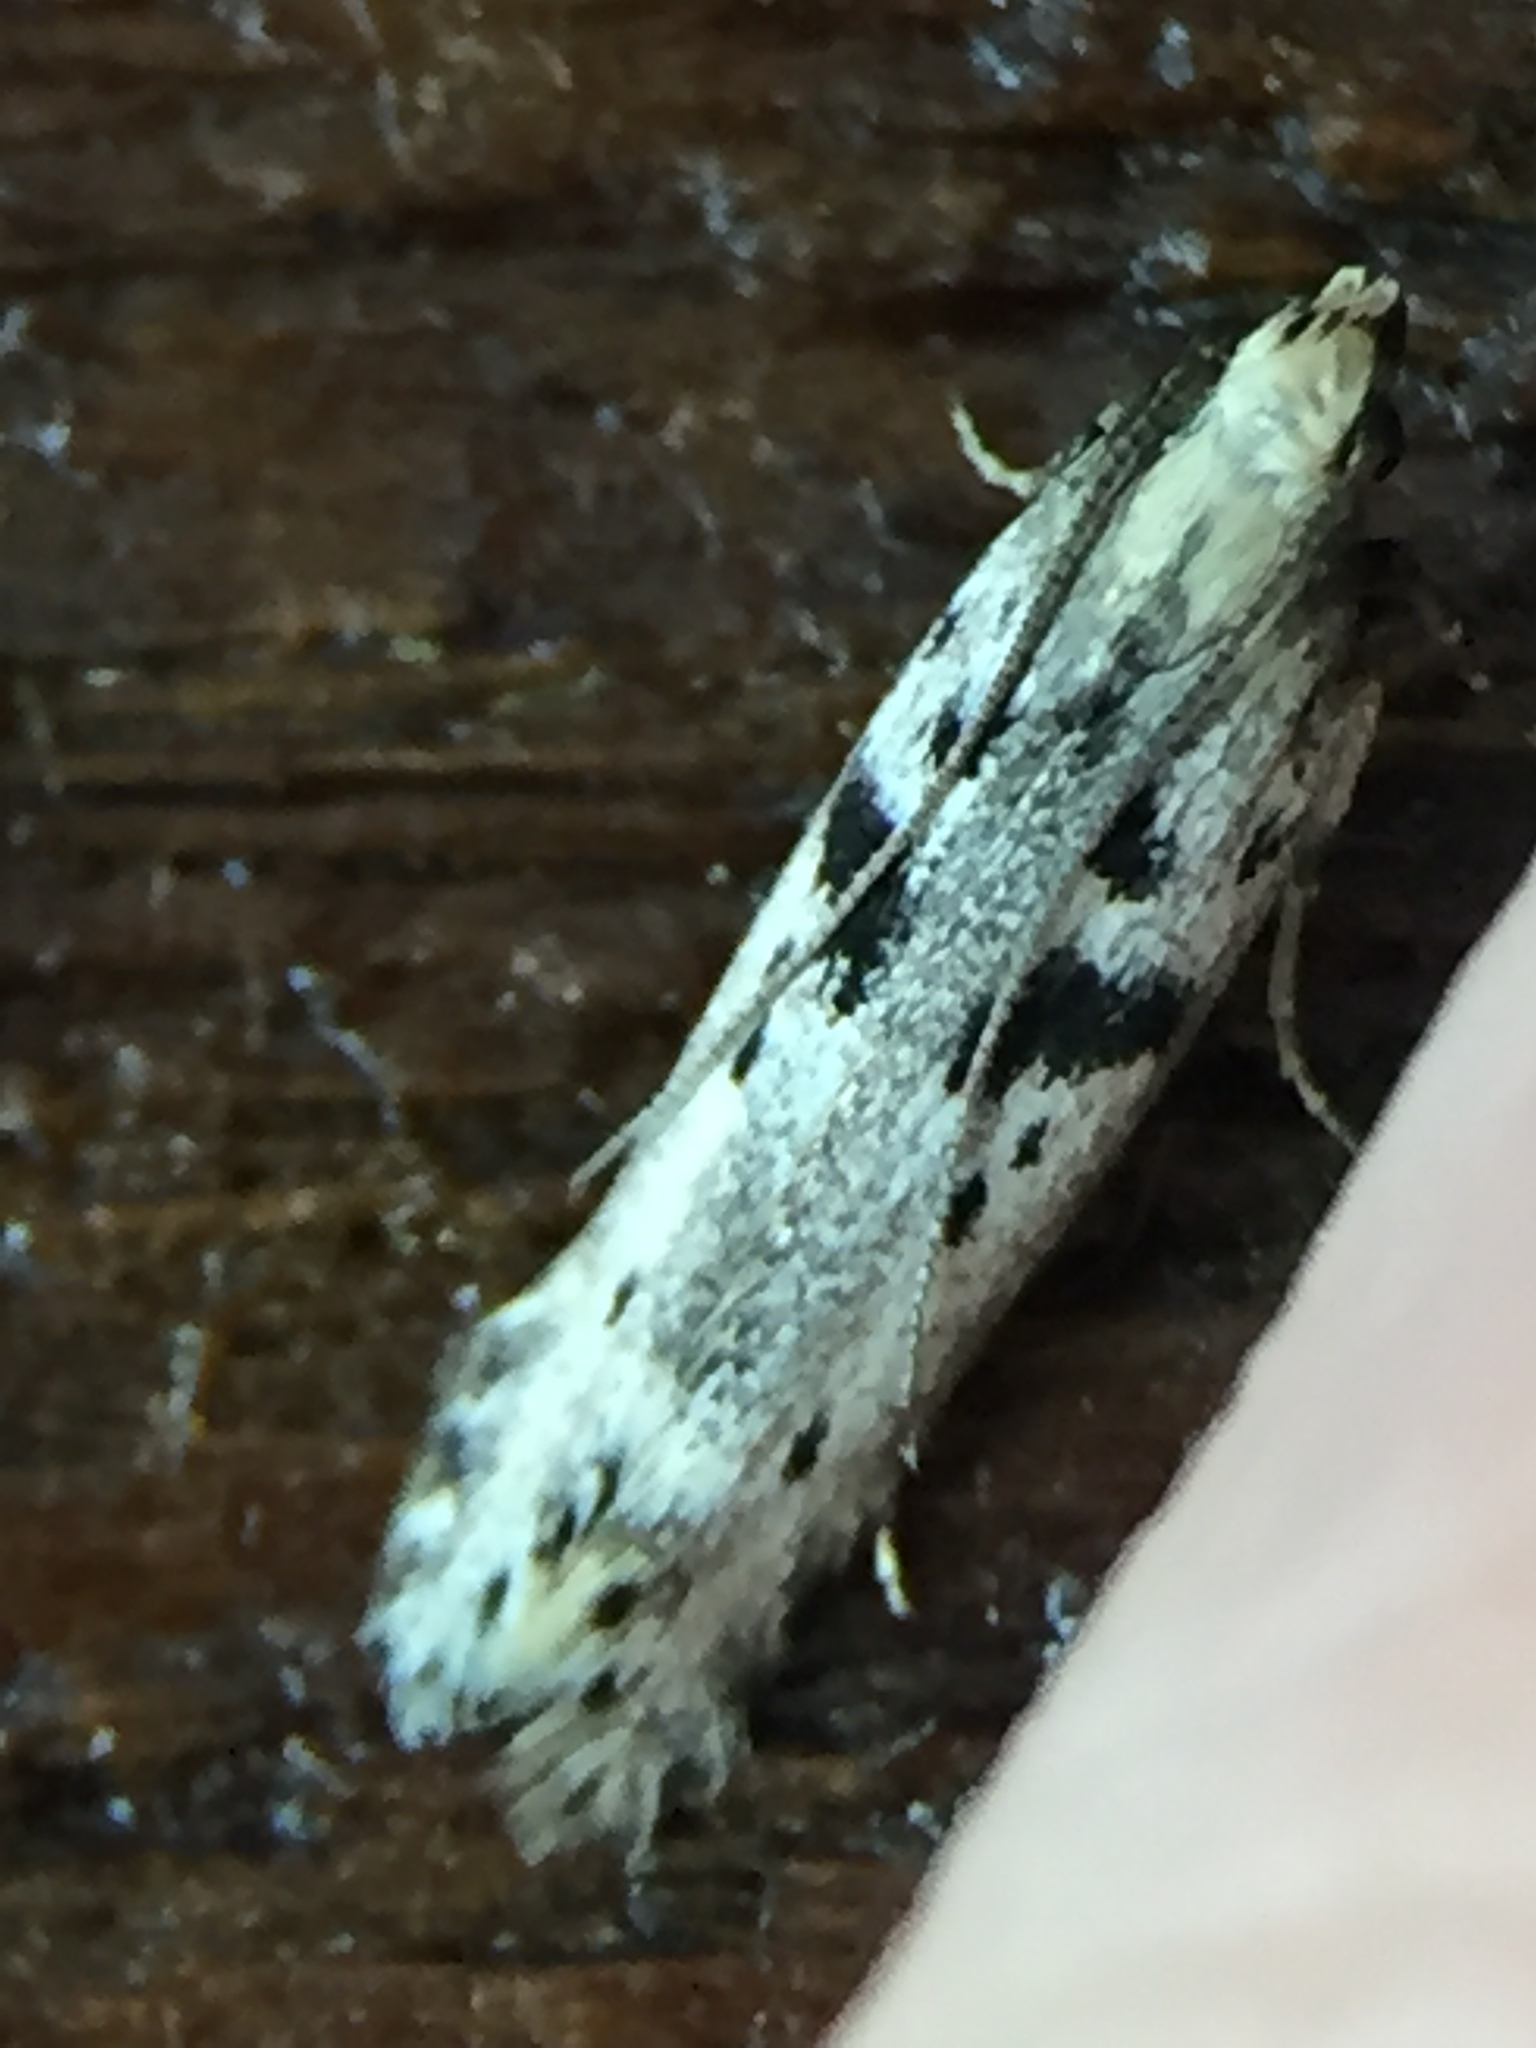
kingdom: Animalia
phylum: Arthropoda
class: Insecta
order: Lepidoptera
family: Gelechiidae
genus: Aristotelia
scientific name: Aristotelia paradesma
